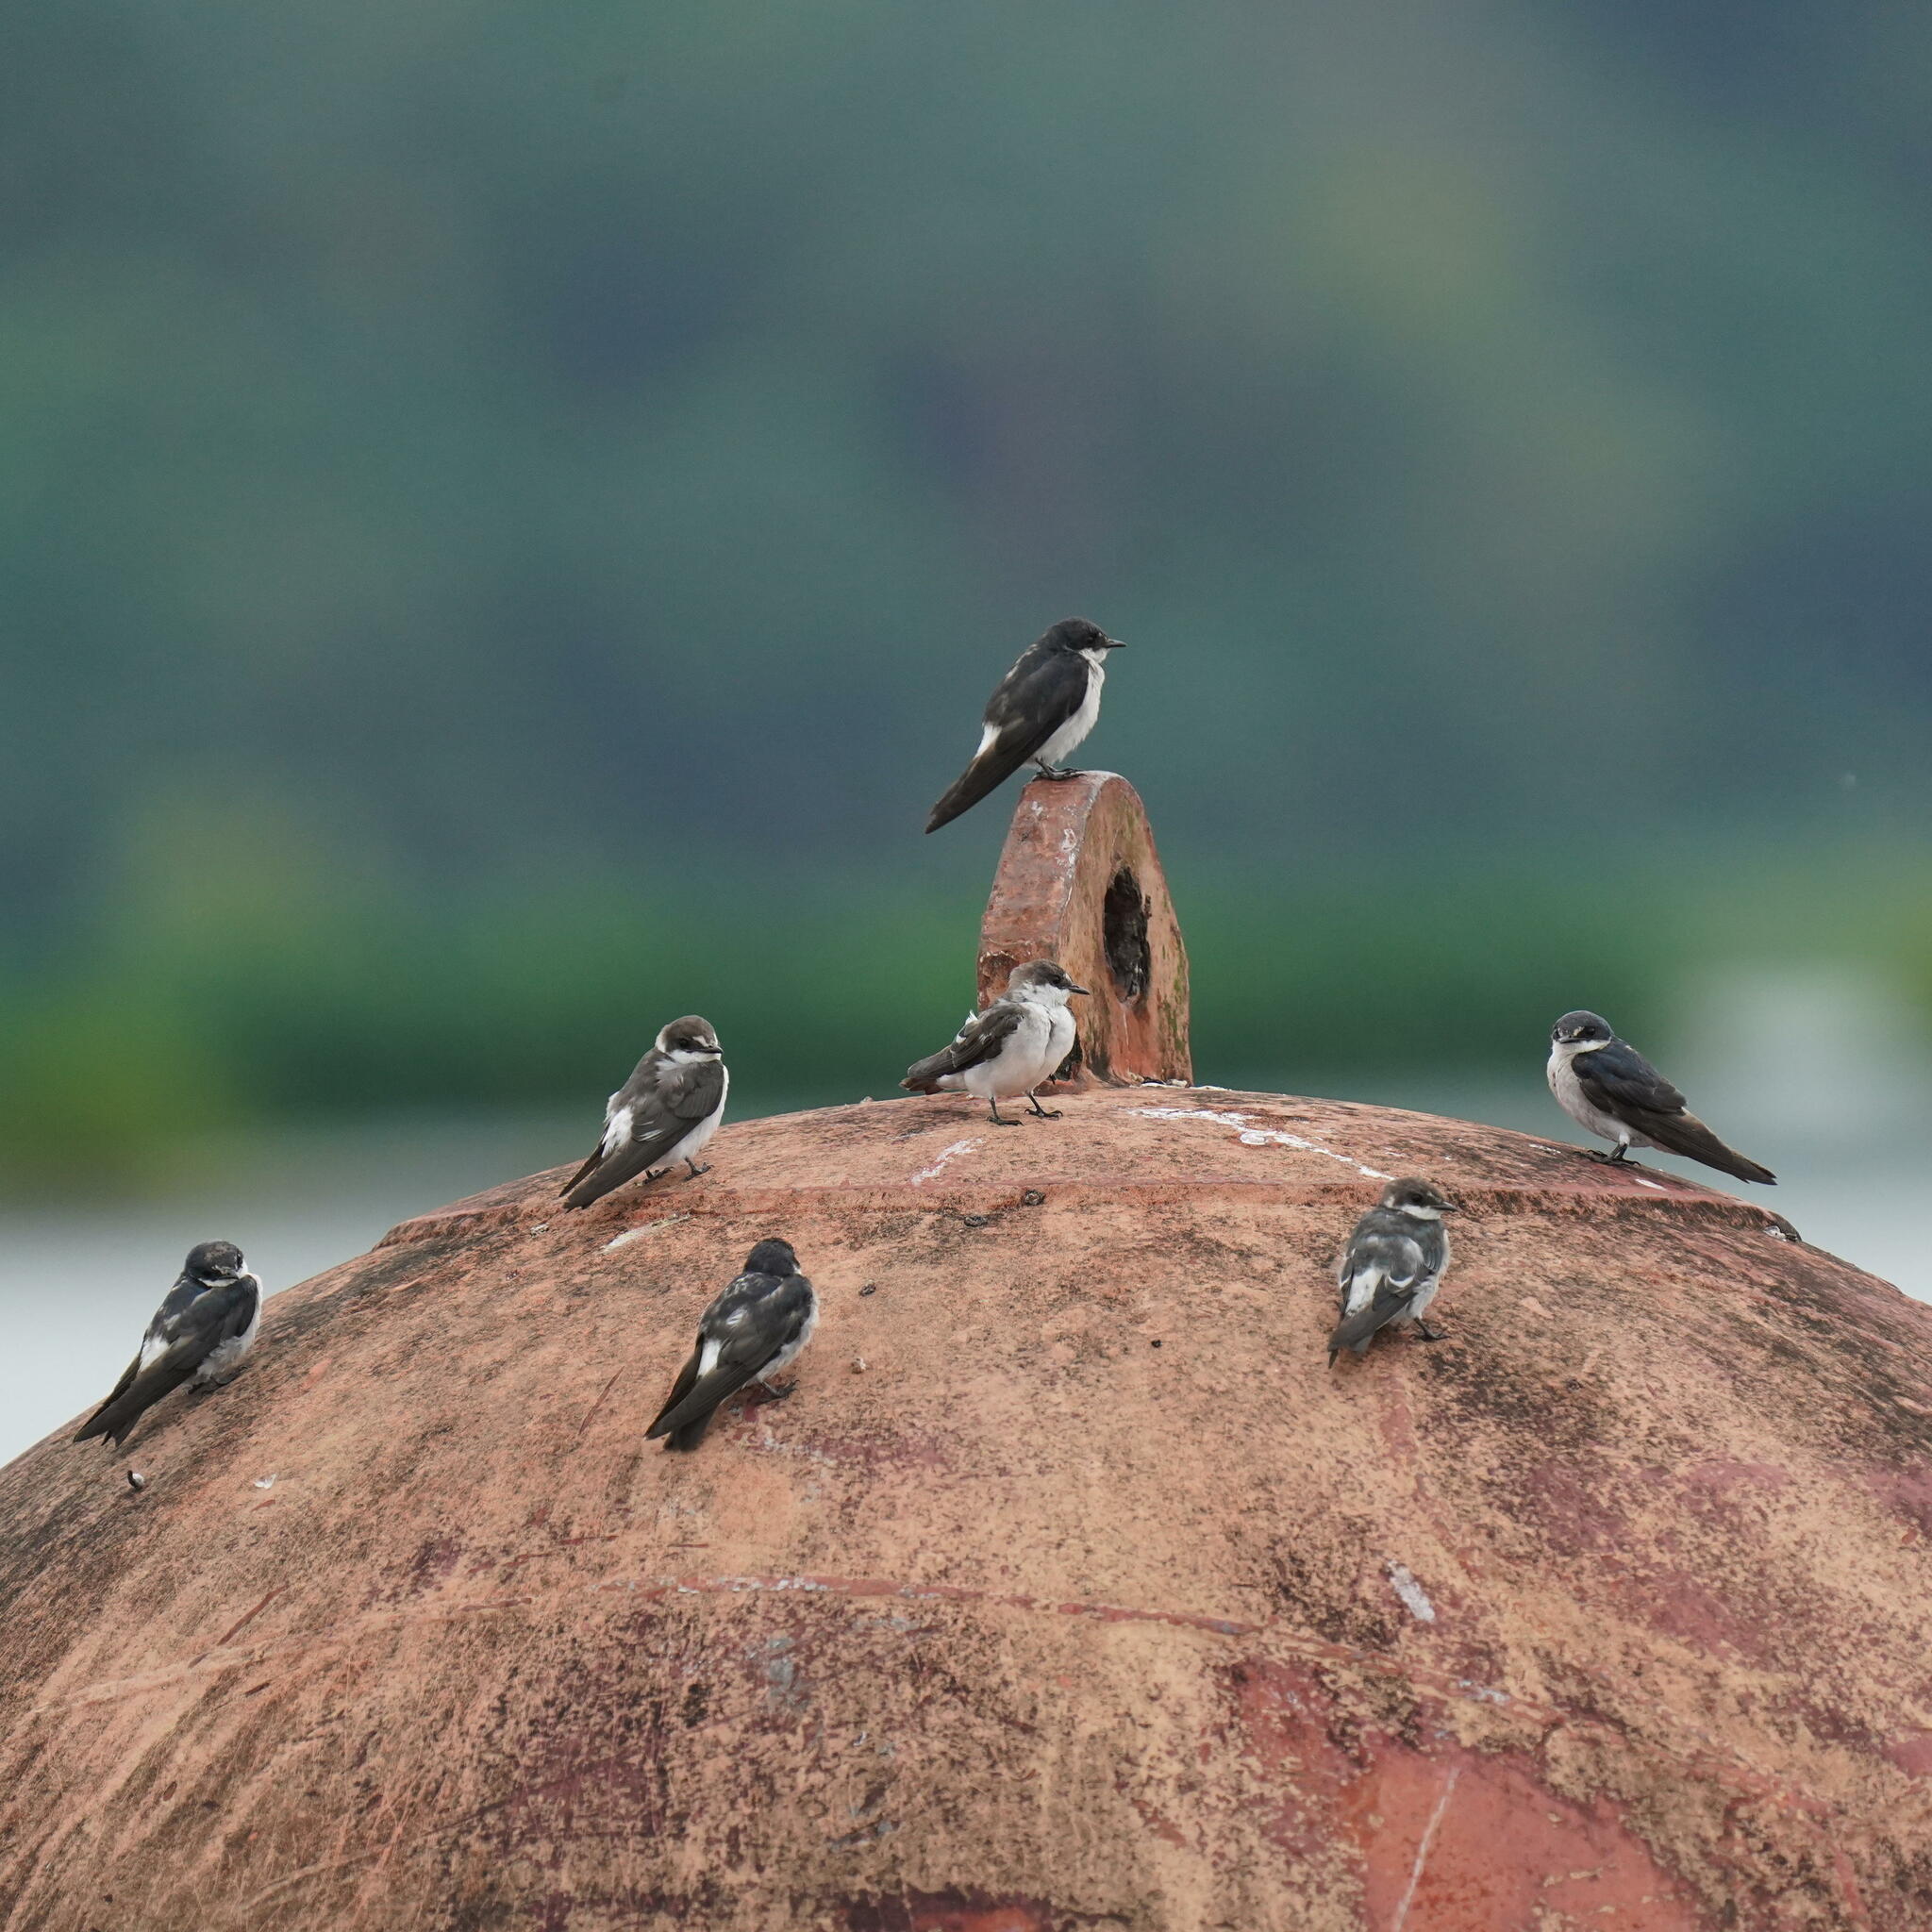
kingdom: Animalia
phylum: Chordata
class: Aves
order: Passeriformes
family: Hirundinidae
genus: Tachycineta
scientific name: Tachycineta albilinea
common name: Mangrove swallow
